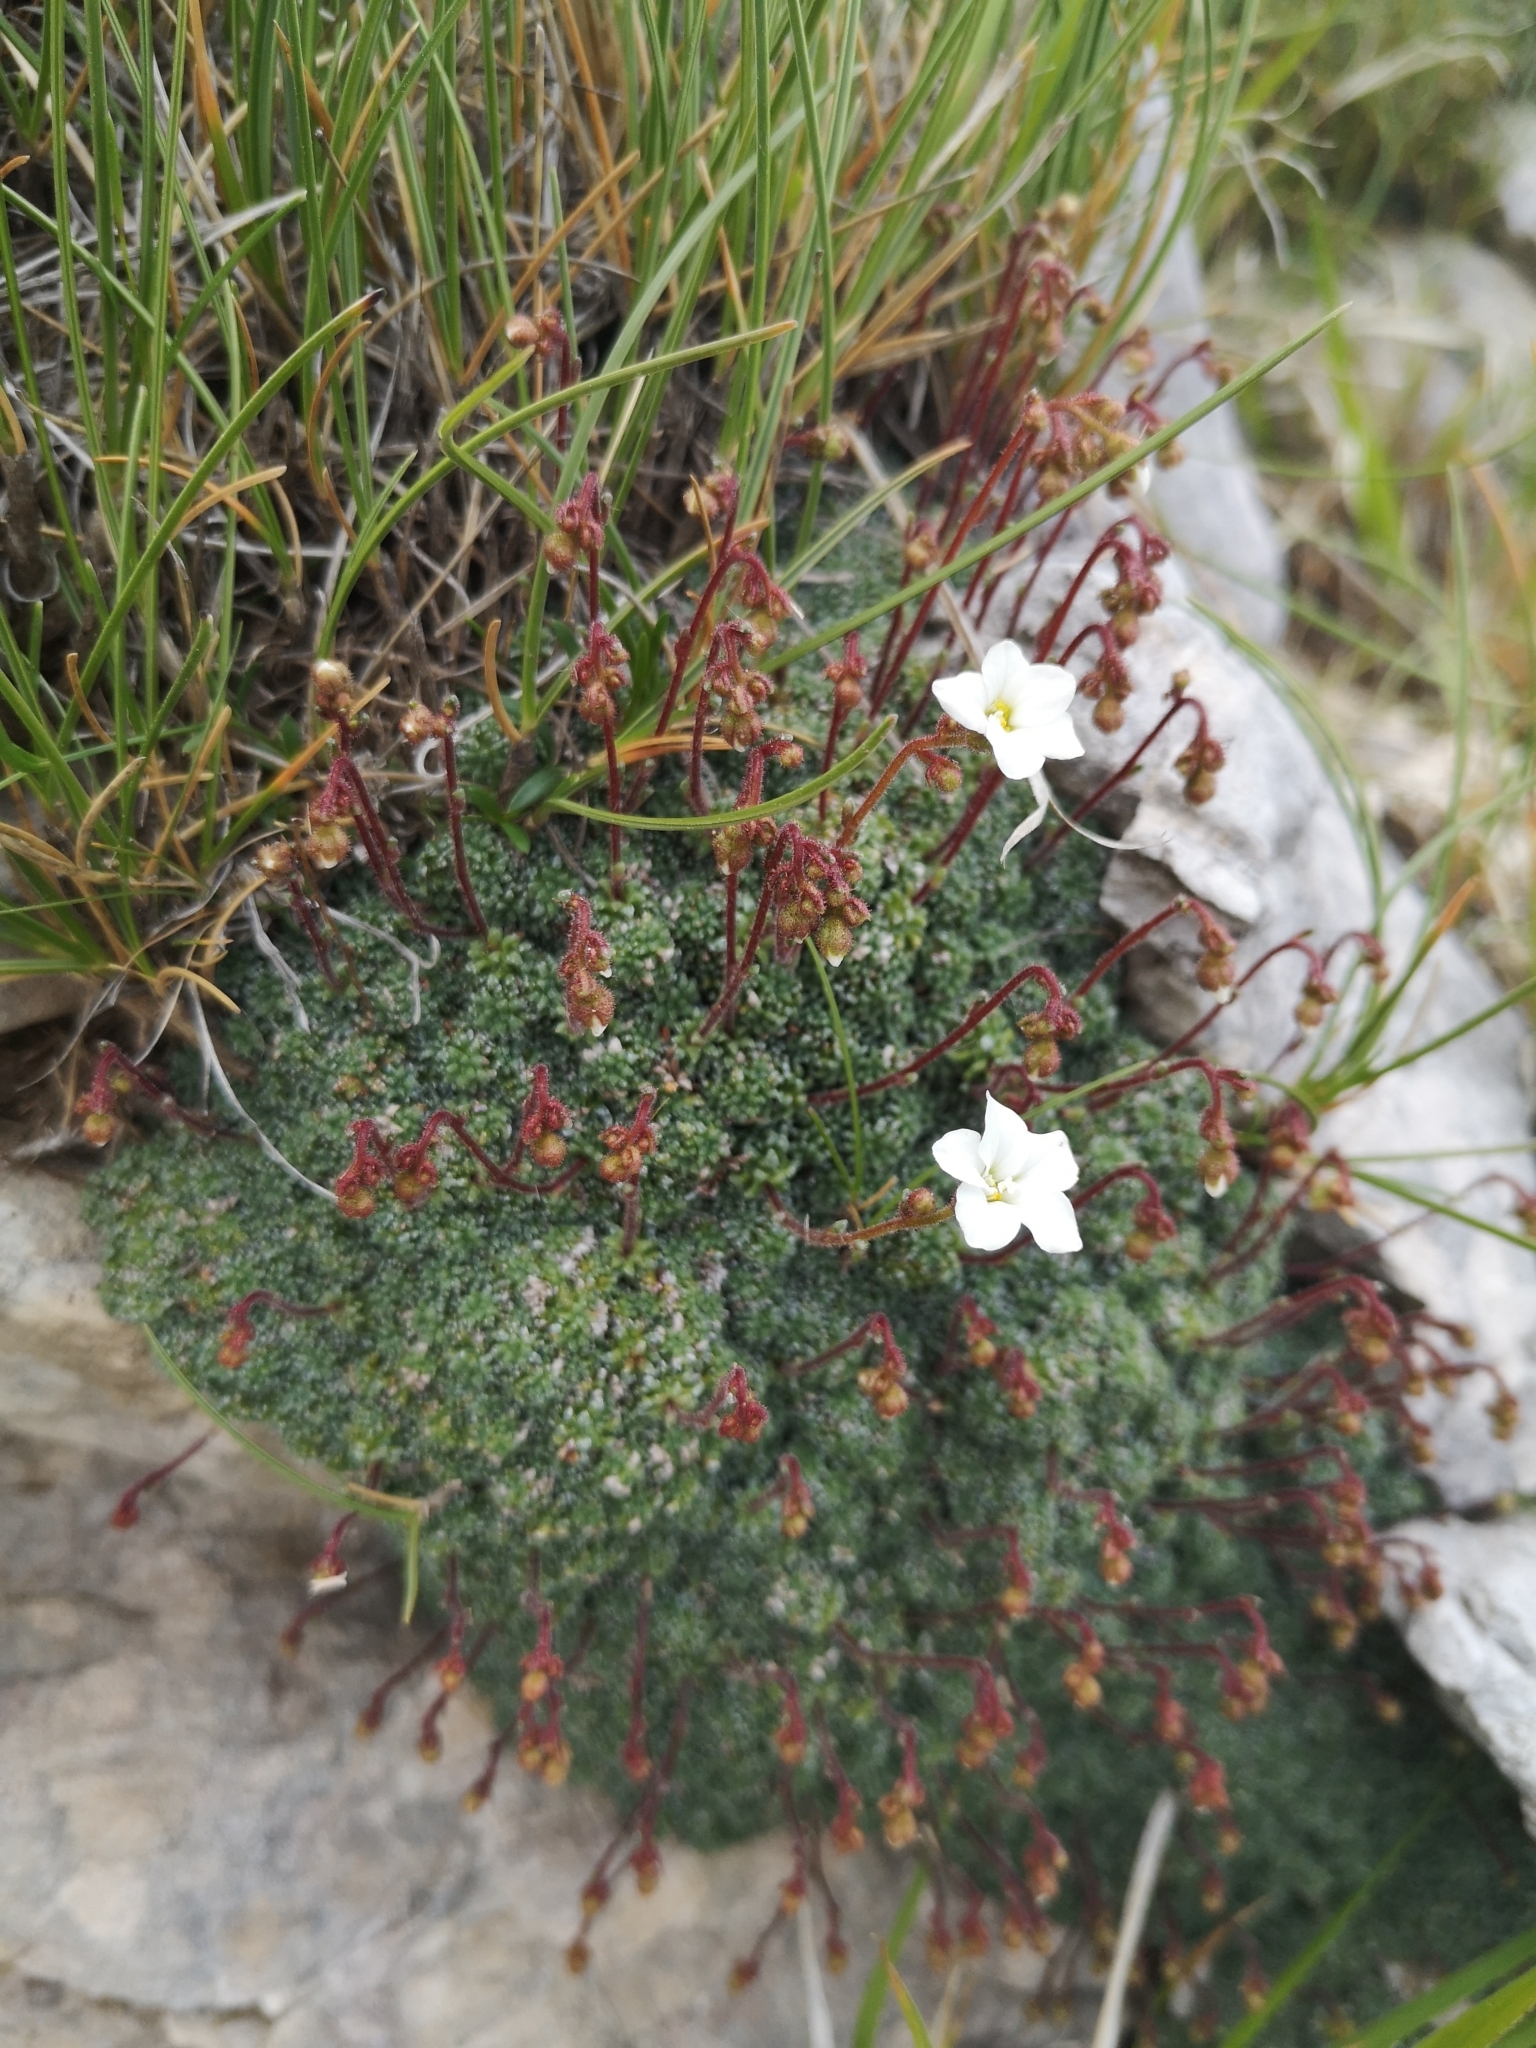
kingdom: Plantae
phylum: Tracheophyta
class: Magnoliopsida
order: Saxifragales
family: Saxifragaceae
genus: Saxifraga
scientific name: Saxifraga caesia
